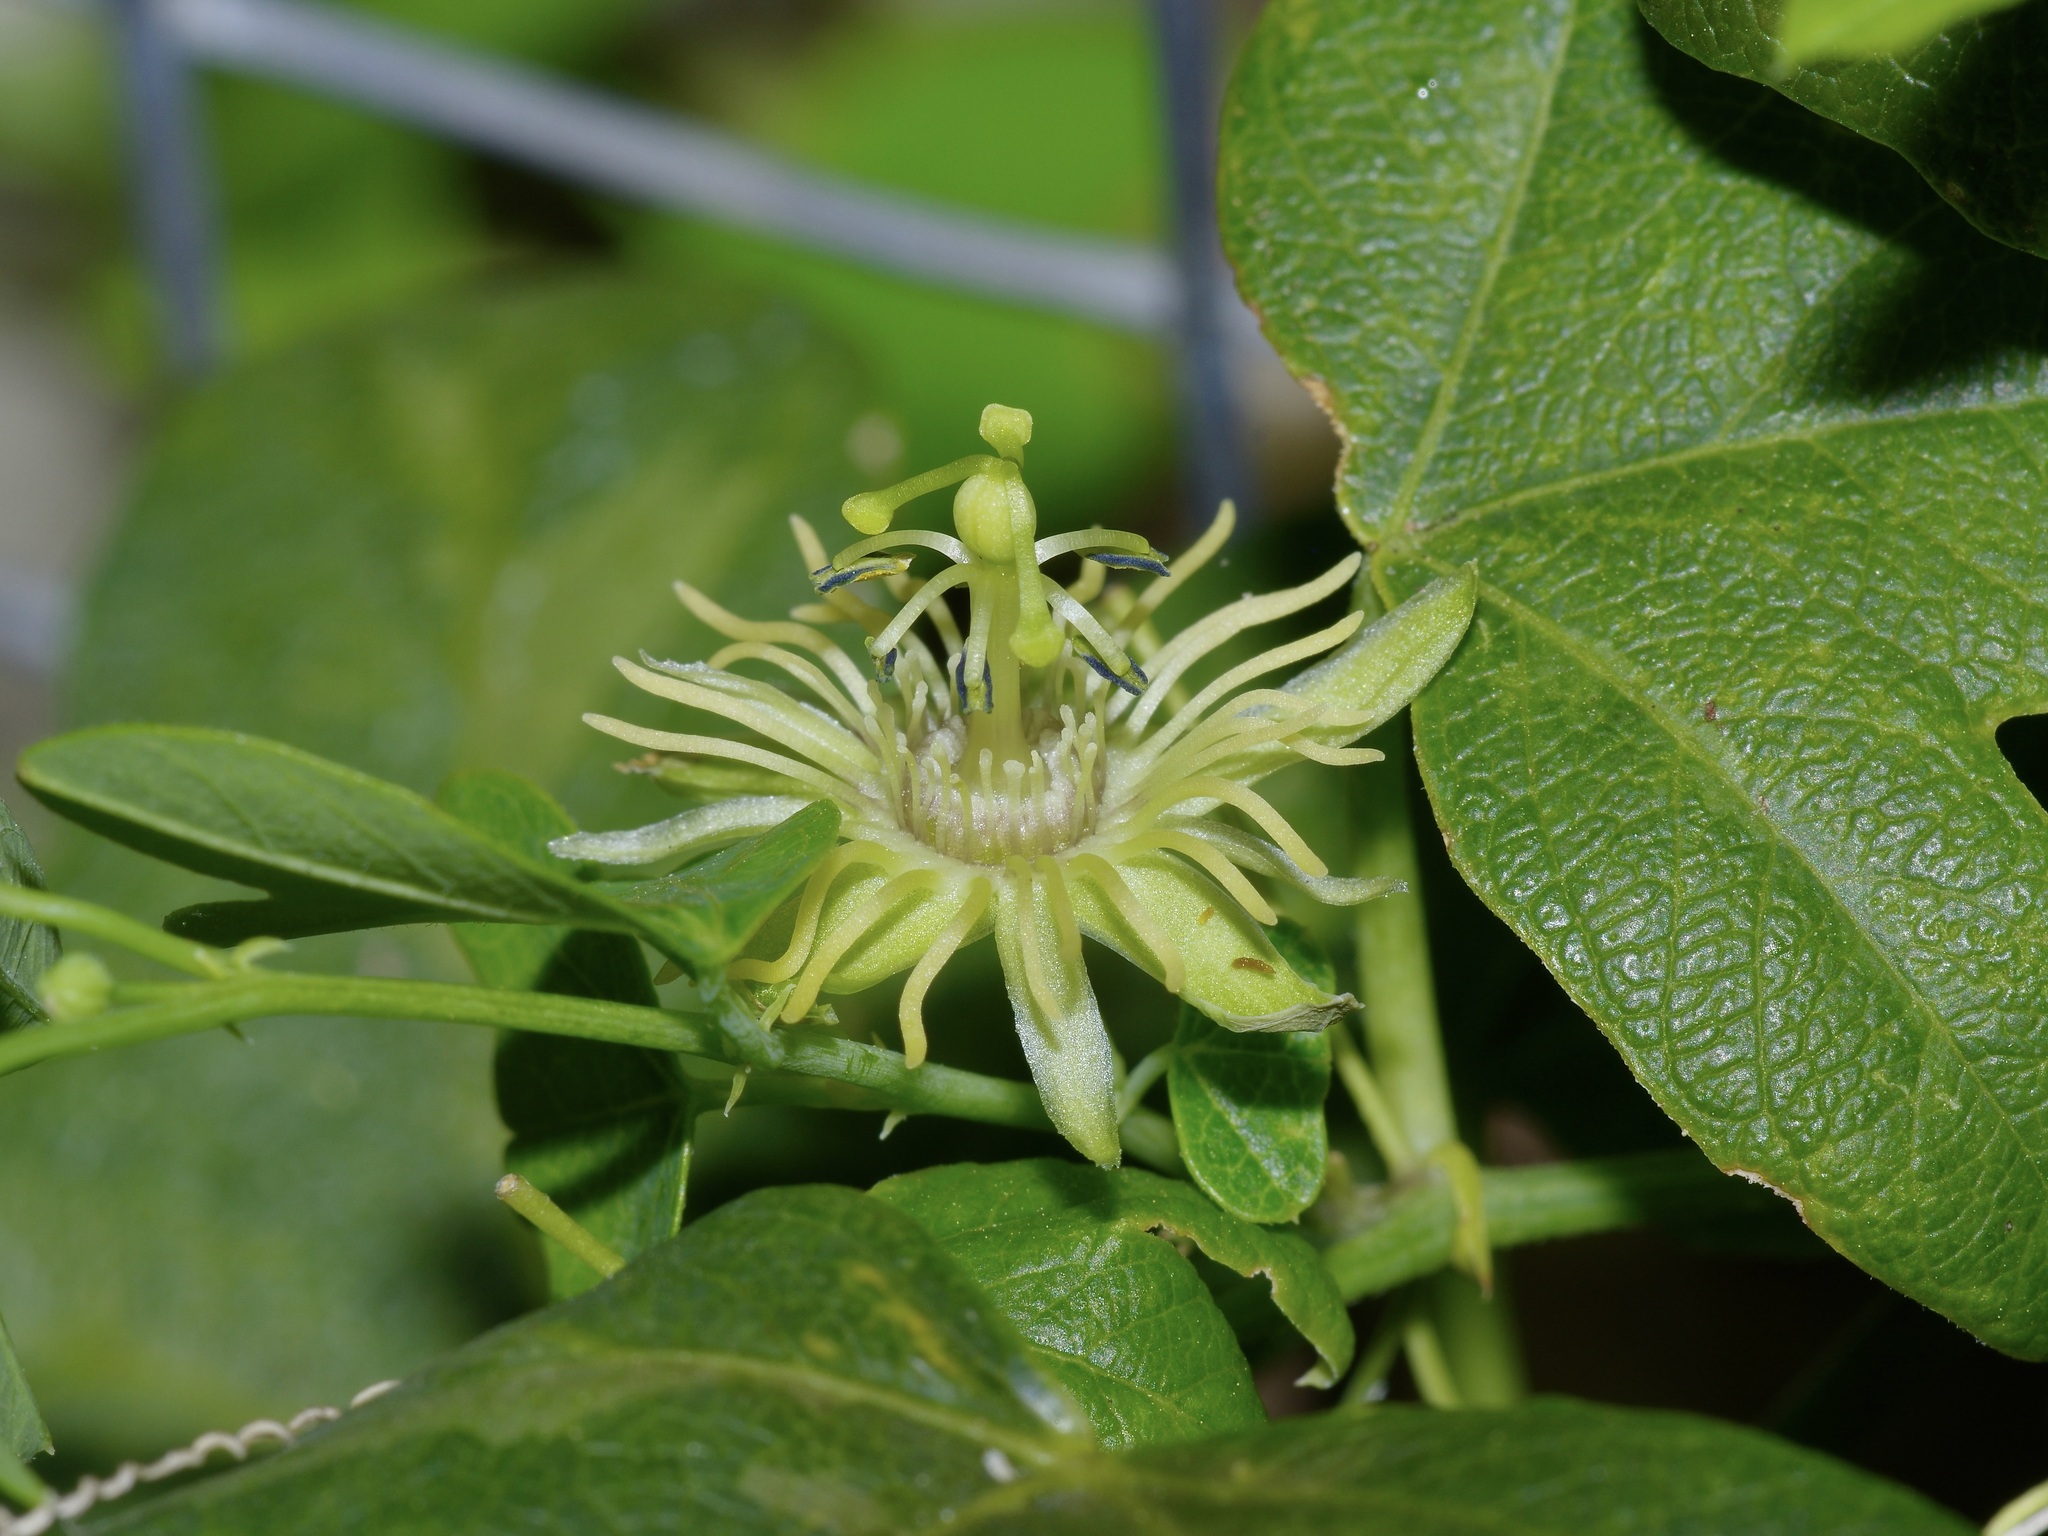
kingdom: Plantae
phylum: Tracheophyta
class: Magnoliopsida
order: Malpighiales
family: Passifloraceae
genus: Passiflora
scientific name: Passiflora lutea
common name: Yellow passionflower
